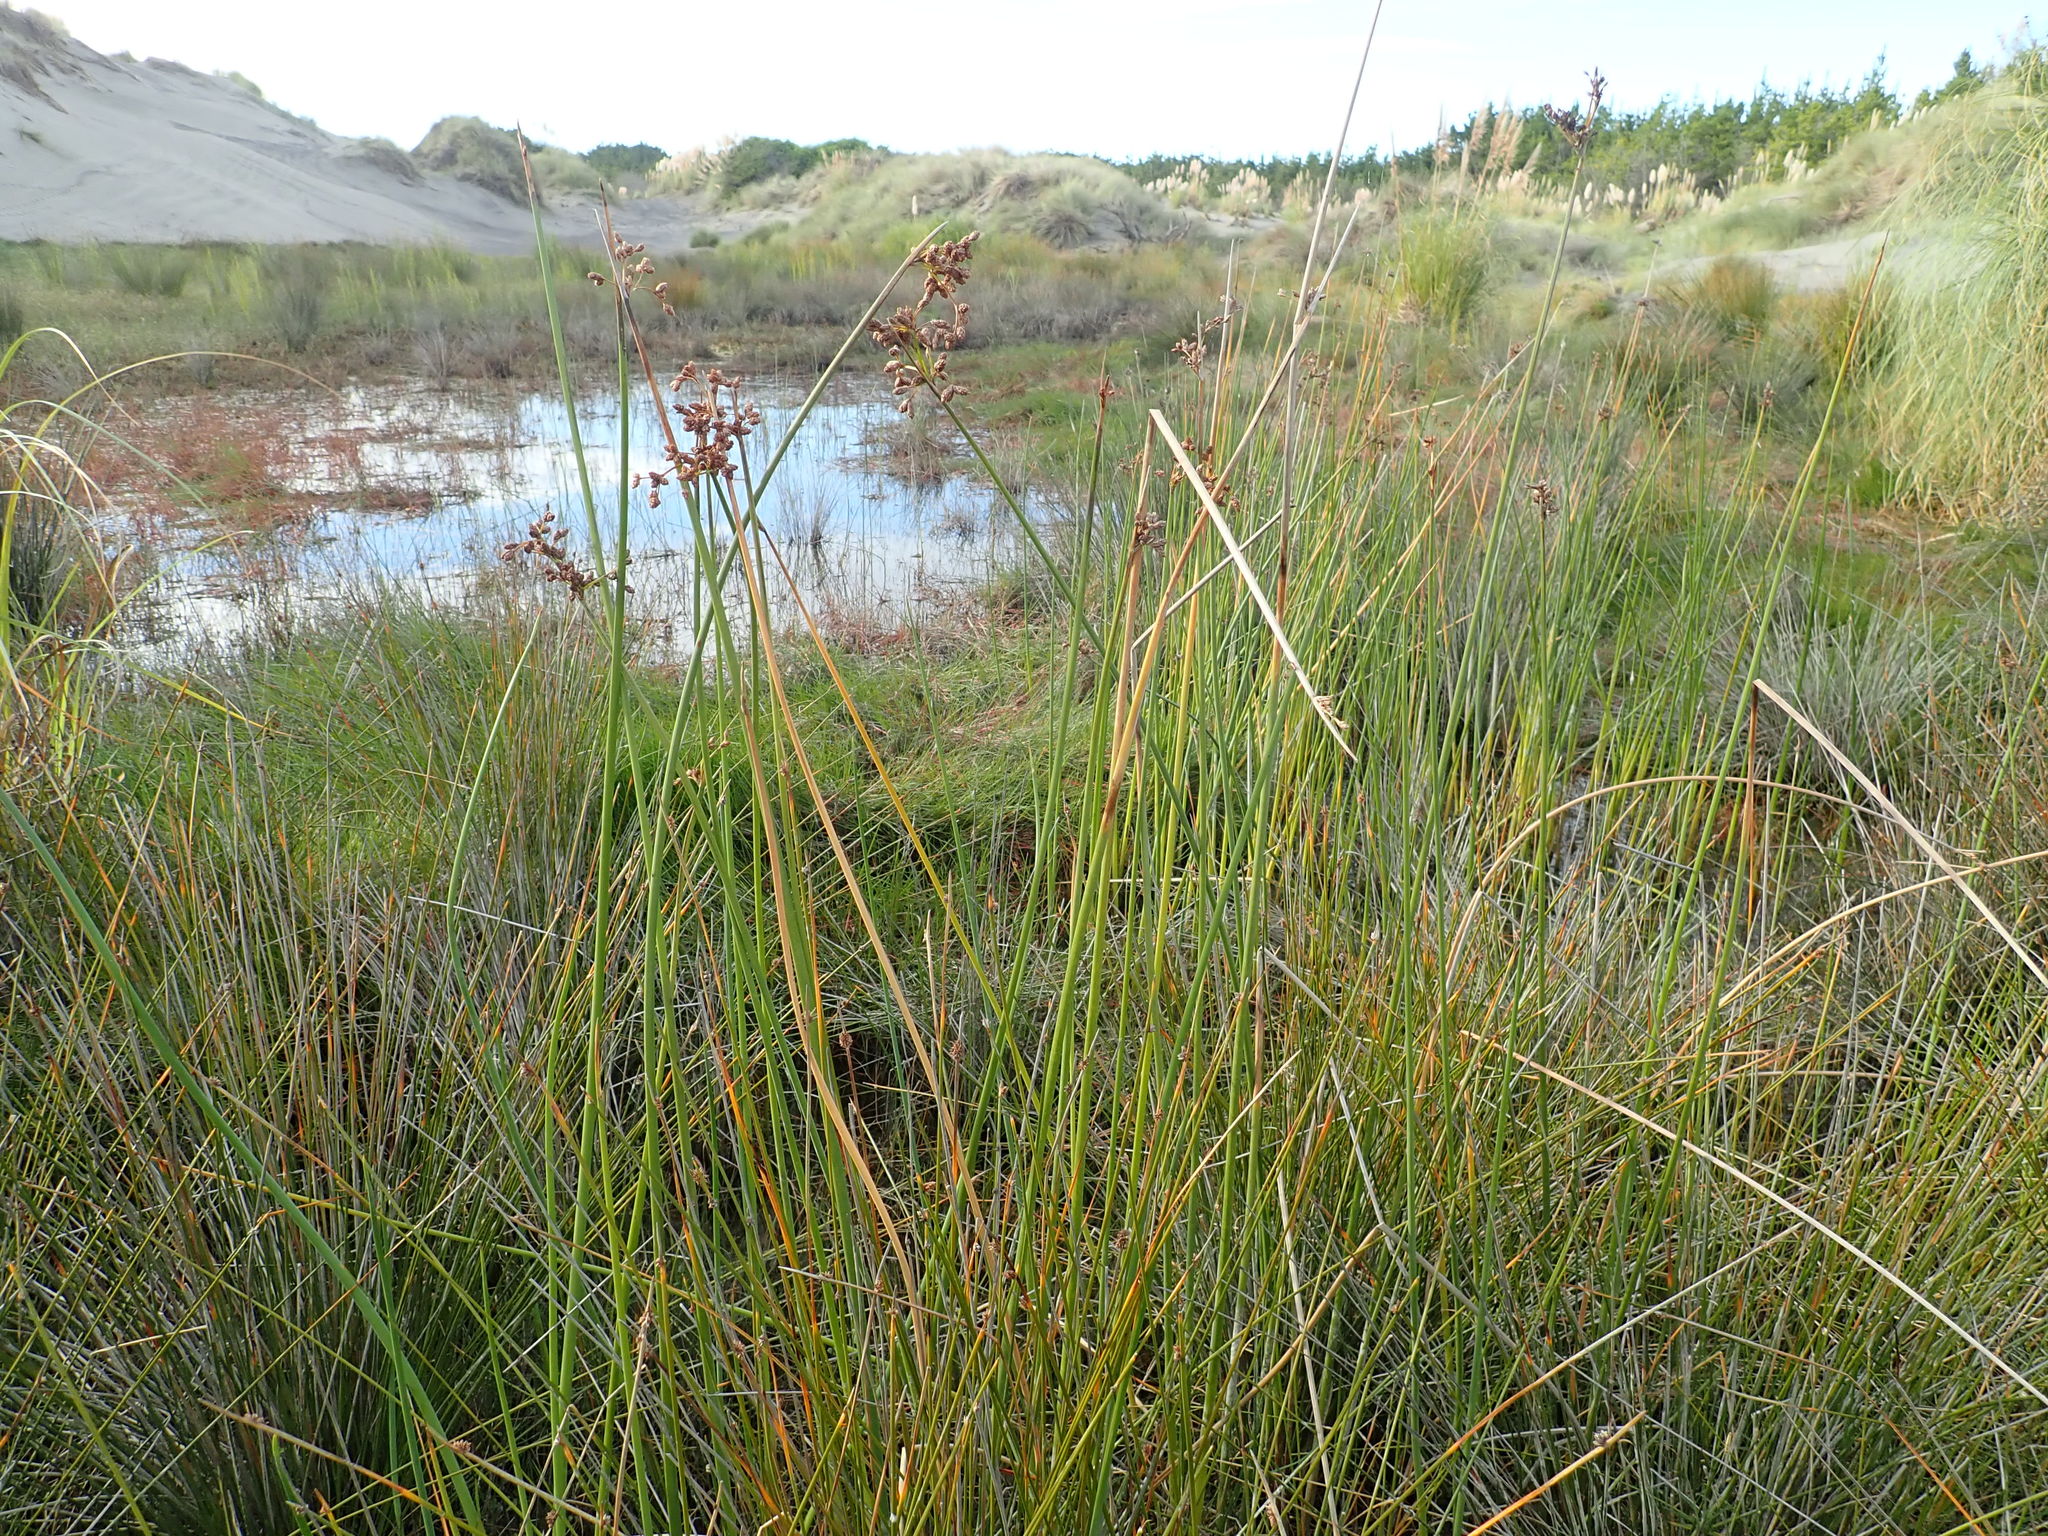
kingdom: Plantae
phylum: Tracheophyta
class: Liliopsida
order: Poales
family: Cyperaceae
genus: Schoenoplectus
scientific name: Schoenoplectus tabernaemontani
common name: Grey club-rush
